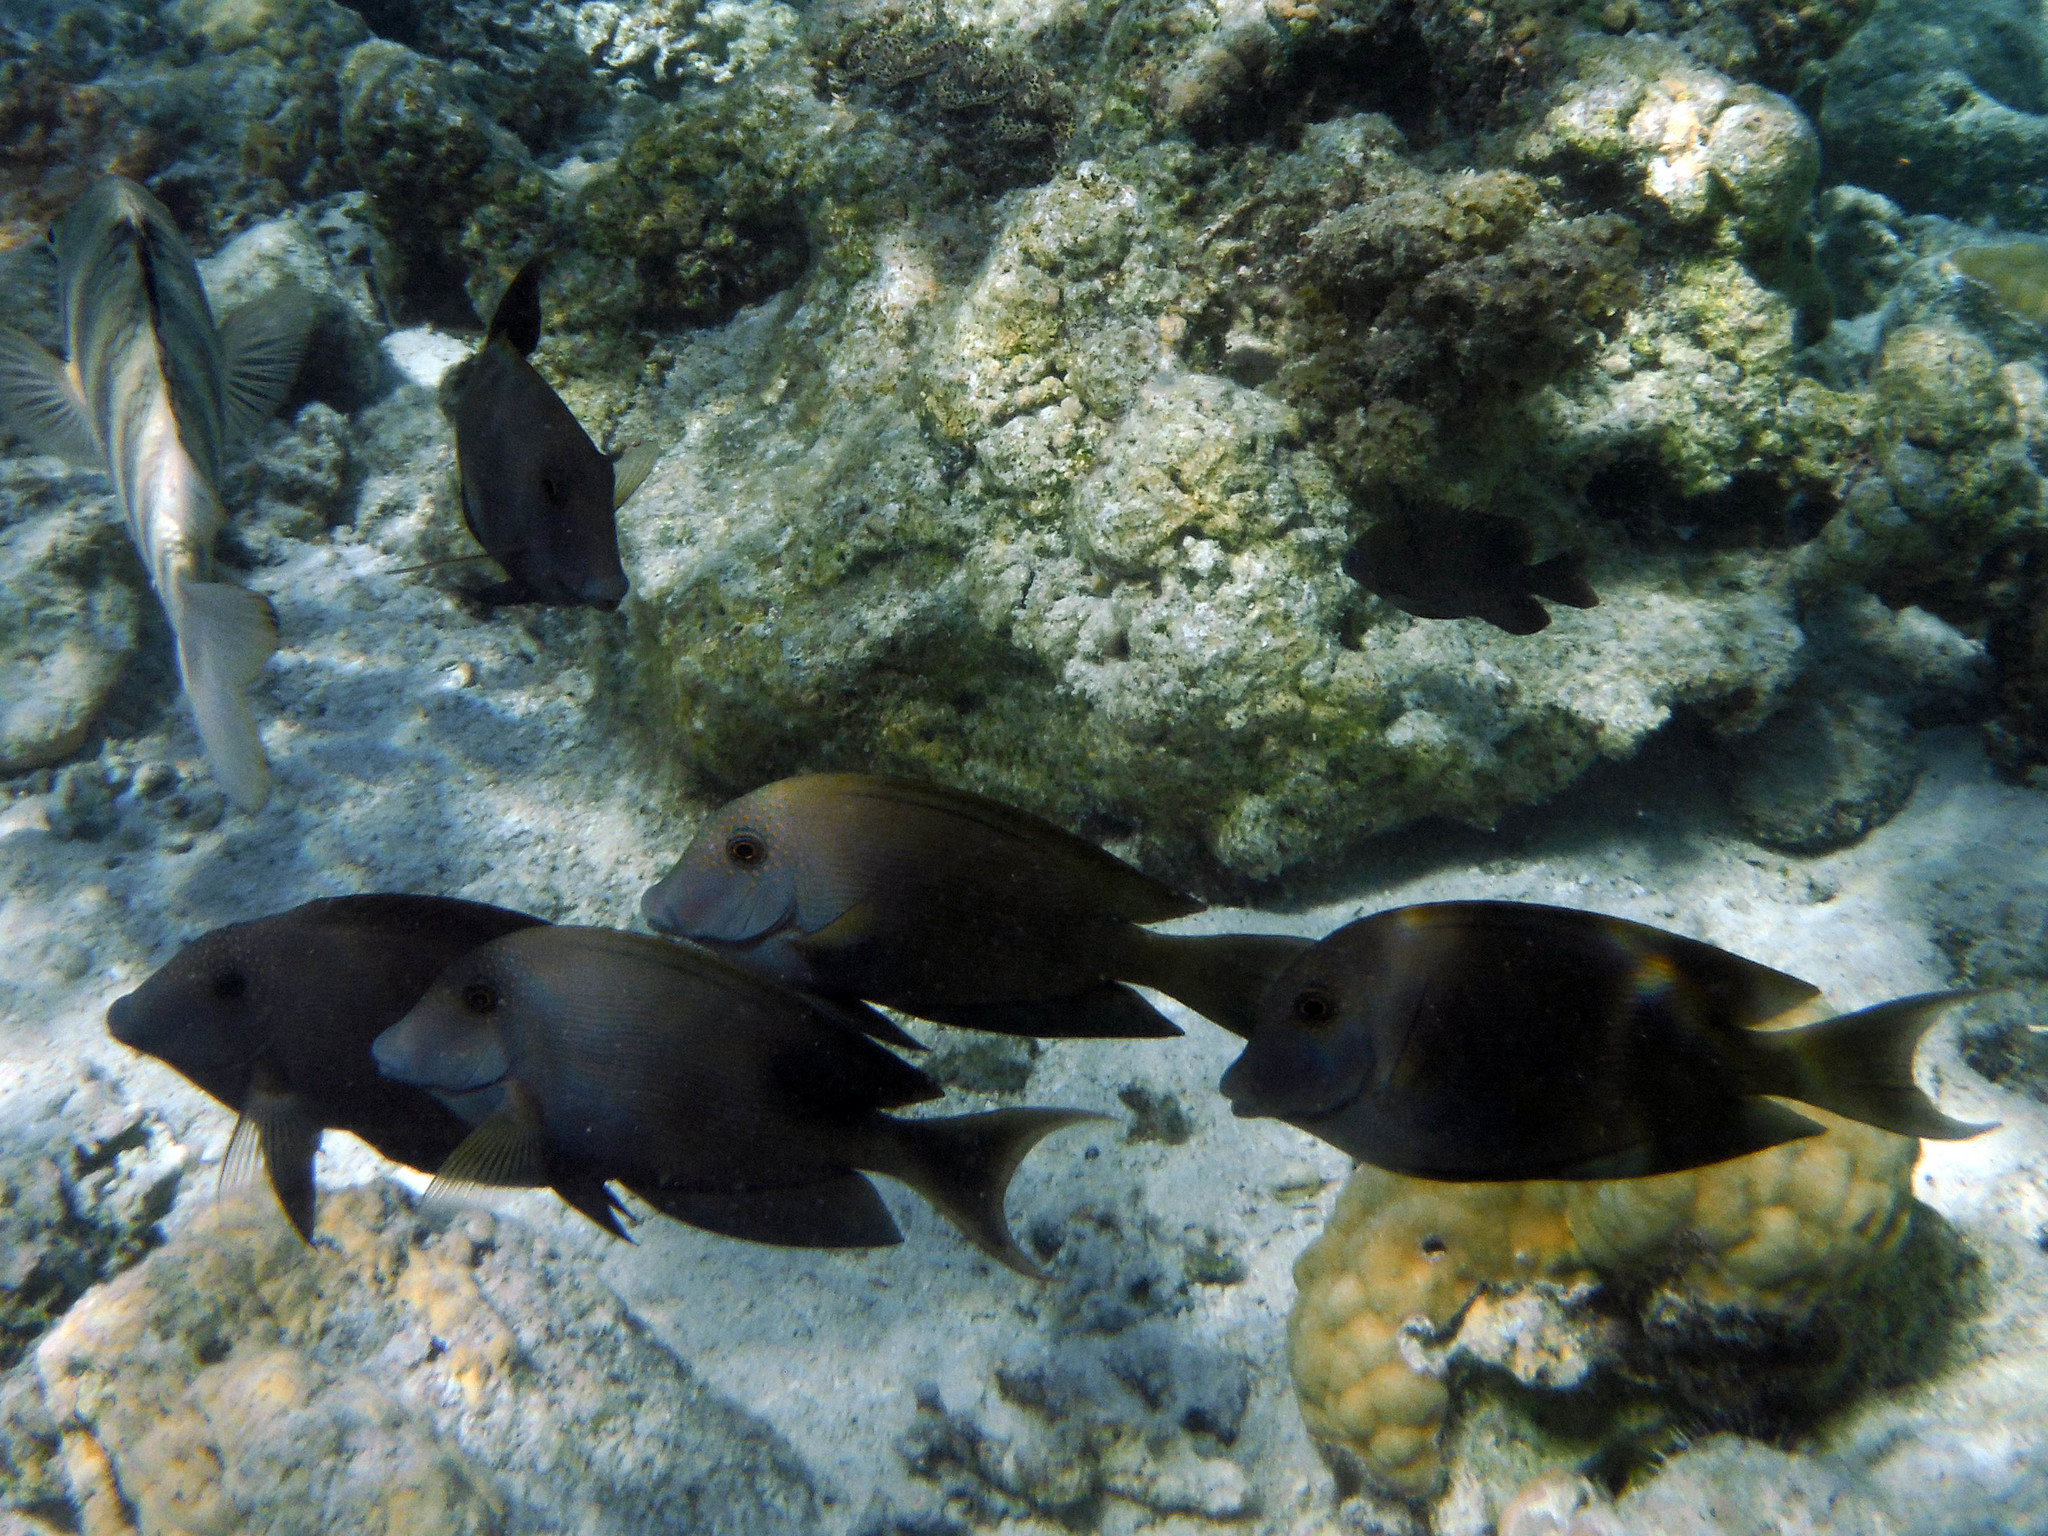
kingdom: Animalia
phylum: Chordata
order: Perciformes
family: Acanthuridae
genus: Ctenochaetus
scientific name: Ctenochaetus striatus
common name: Bristle-toothed surgeonfish
